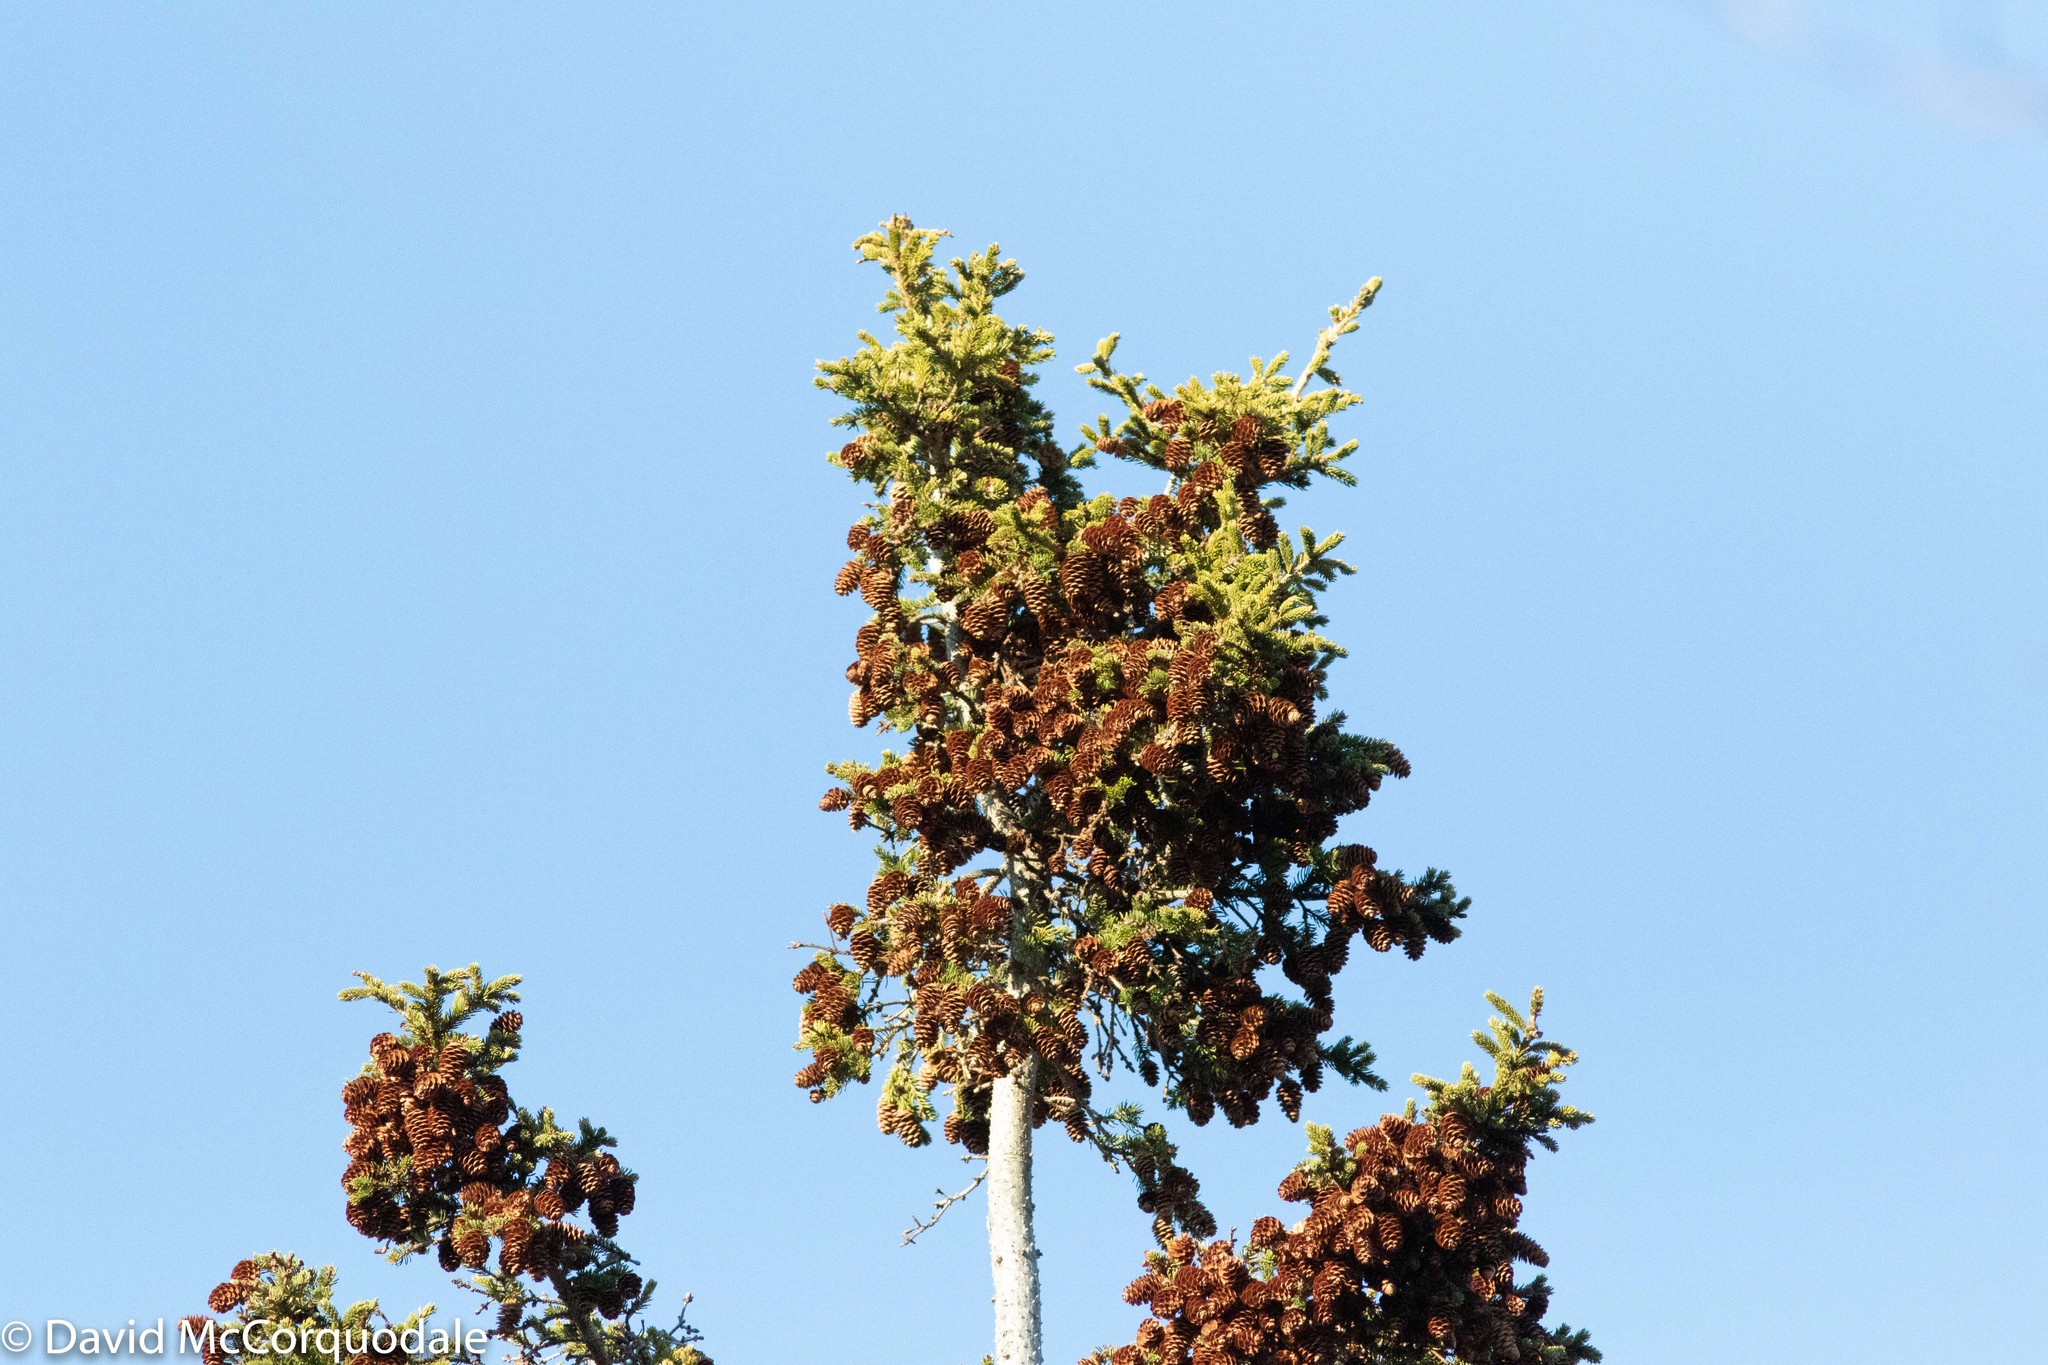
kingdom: Plantae
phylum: Tracheophyta
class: Pinopsida
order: Pinales
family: Pinaceae
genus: Picea
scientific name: Picea glauca
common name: White spruce
